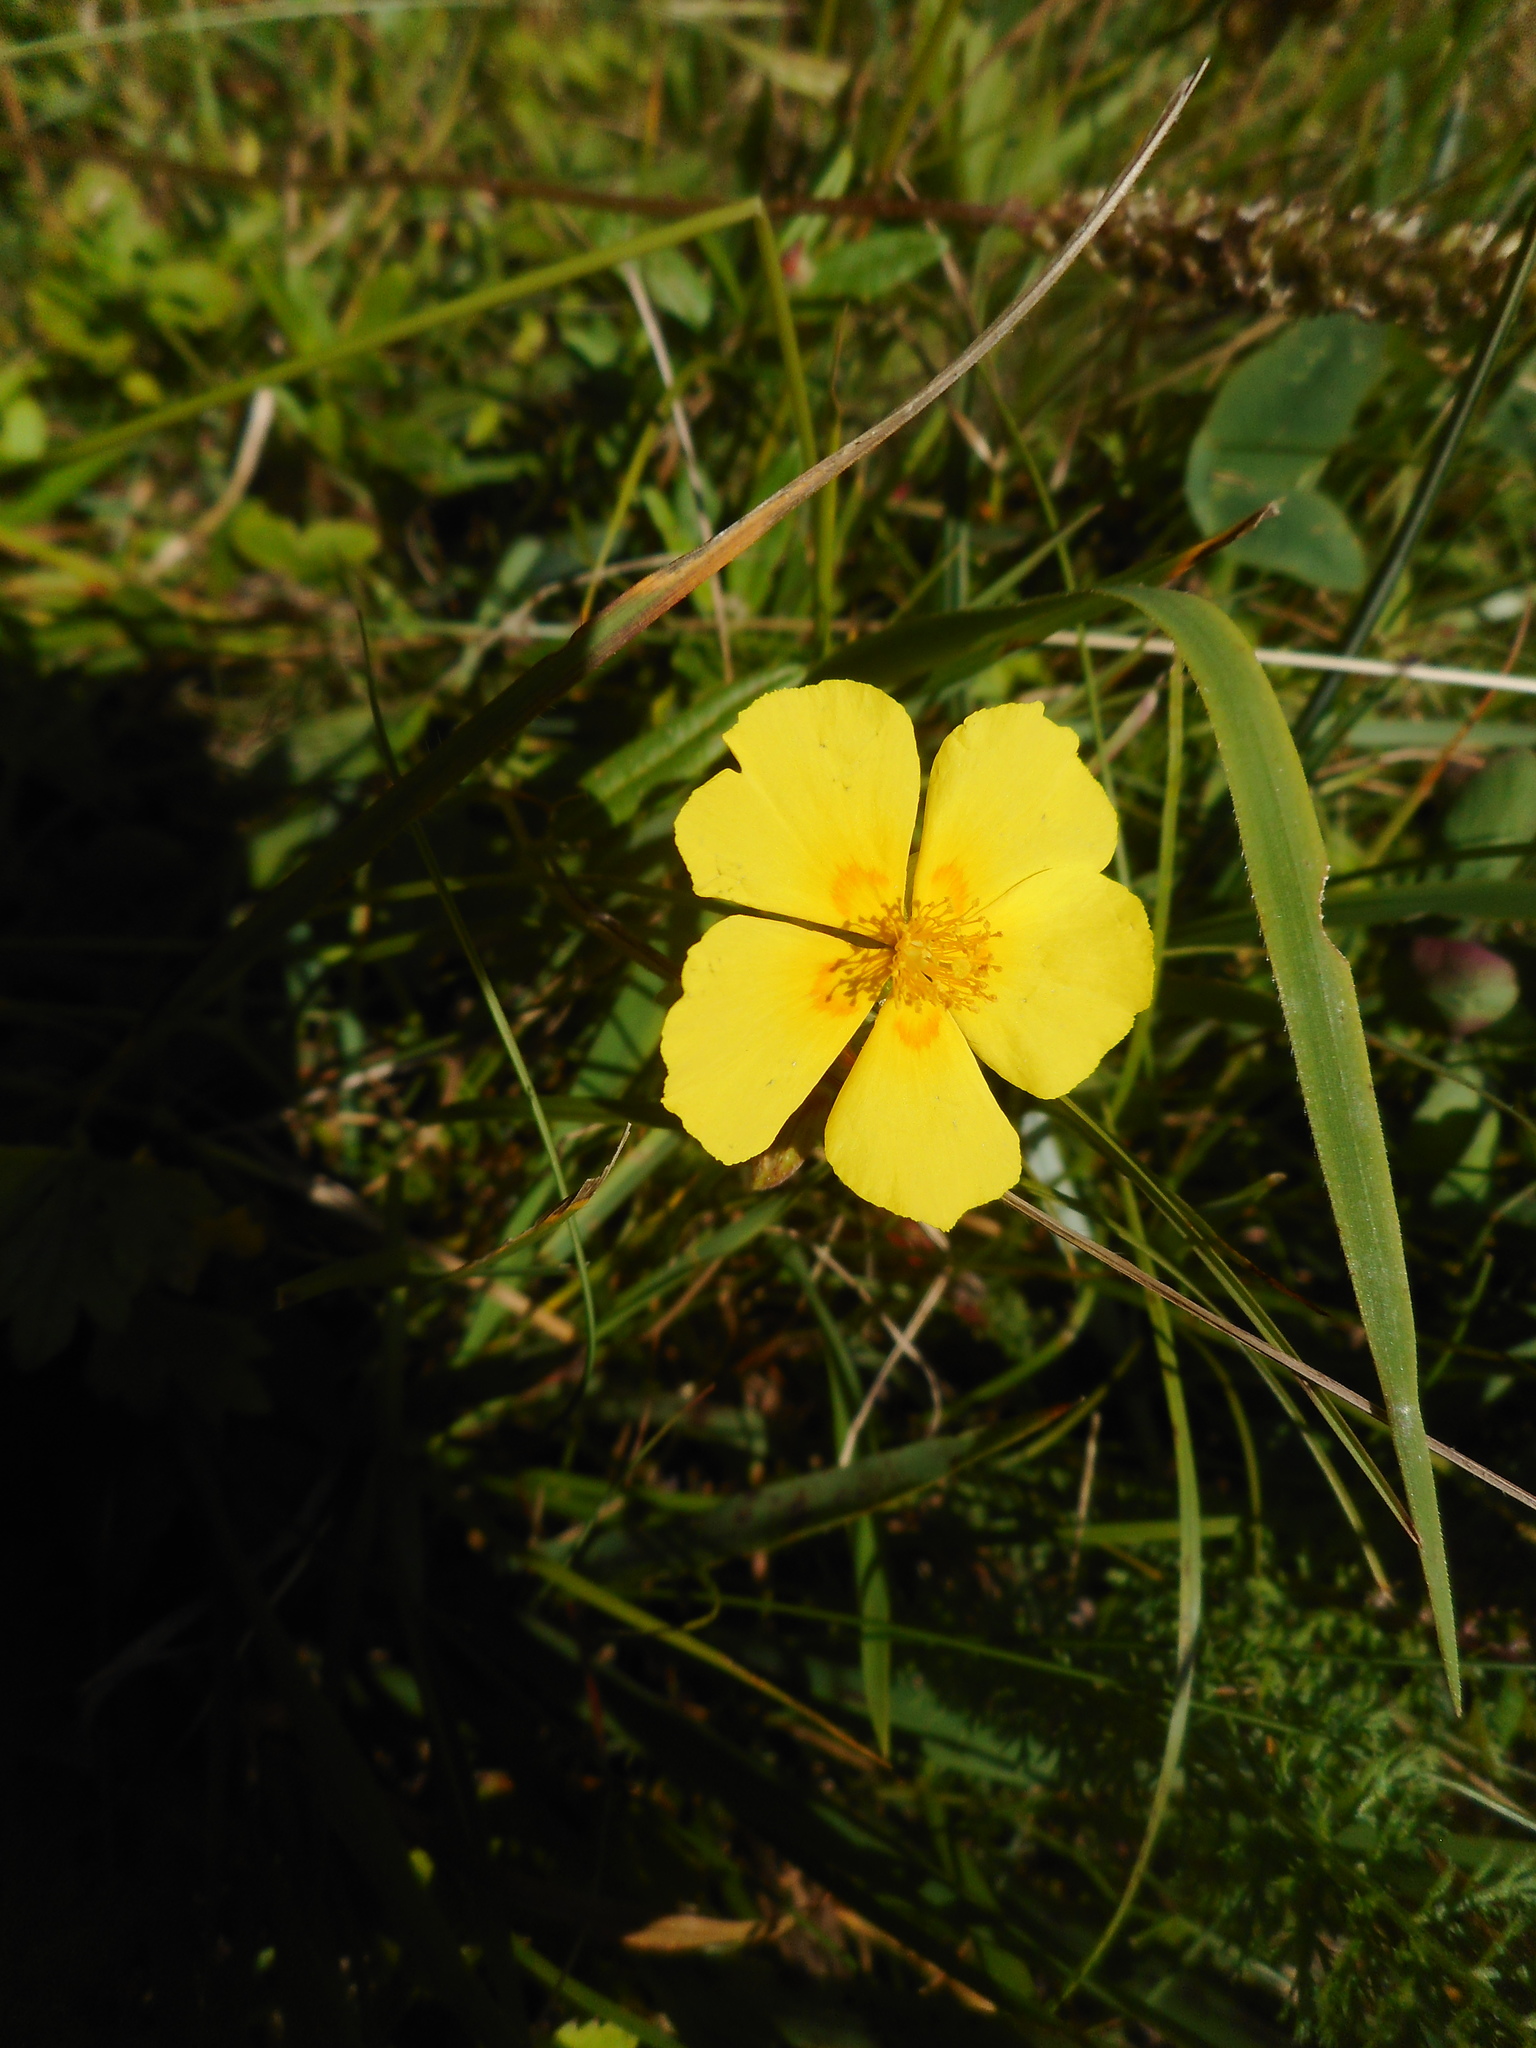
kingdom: Plantae
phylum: Tracheophyta
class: Magnoliopsida
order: Malvales
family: Cistaceae
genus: Helianthemum
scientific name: Helianthemum nummularium
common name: Common rock-rose
